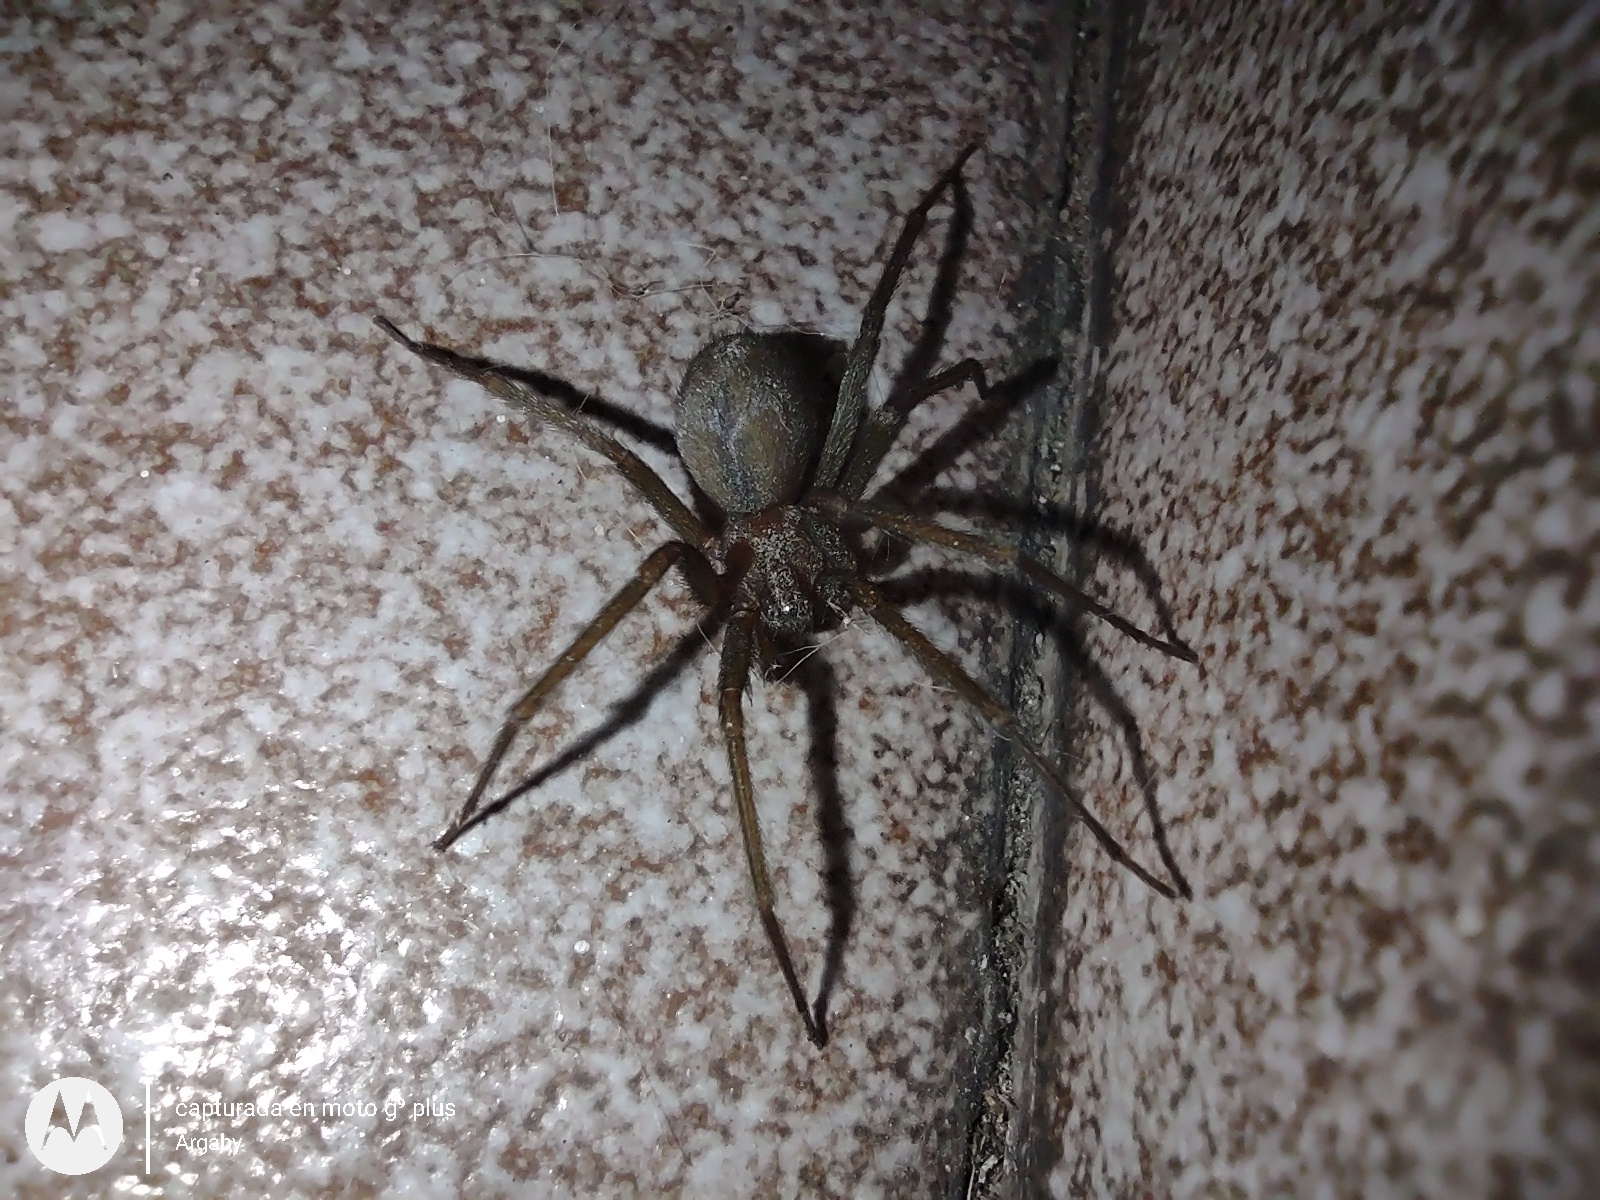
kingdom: Animalia
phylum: Arthropoda
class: Arachnida
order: Araneae
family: Sicariidae
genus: Loxosceles
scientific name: Loxosceles laeta
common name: Chilean recluse spider
